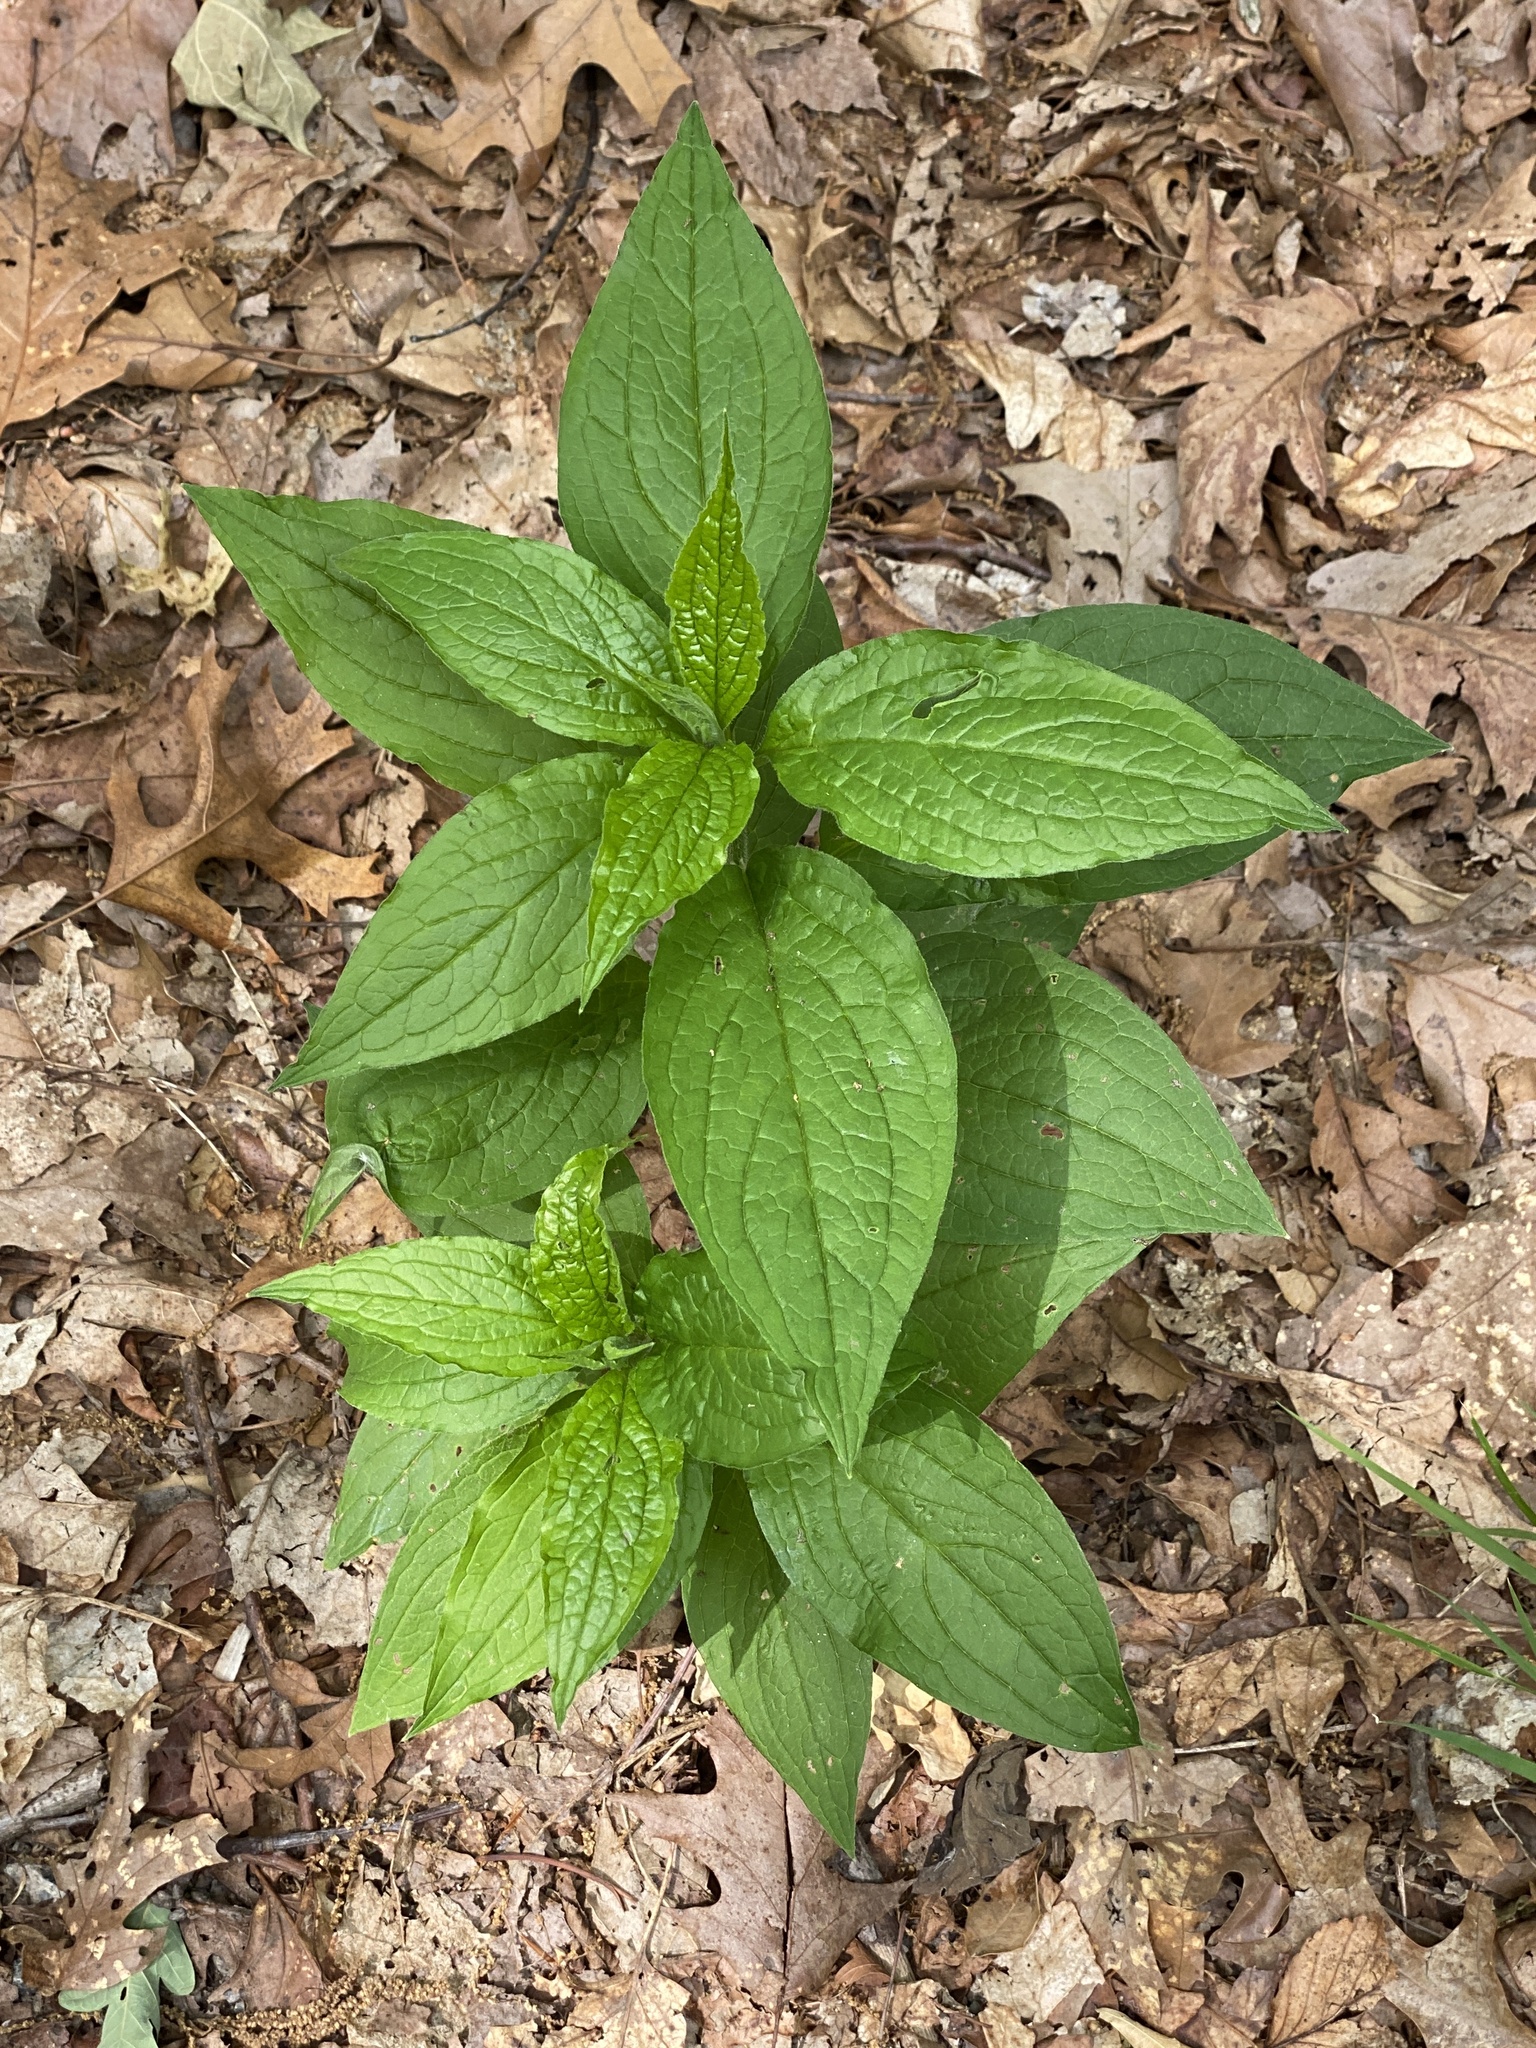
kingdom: Plantae
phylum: Tracheophyta
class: Magnoliopsida
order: Boraginales
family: Boraginaceae
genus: Hackelia
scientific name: Hackelia virginiana
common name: Beggar's-lice
